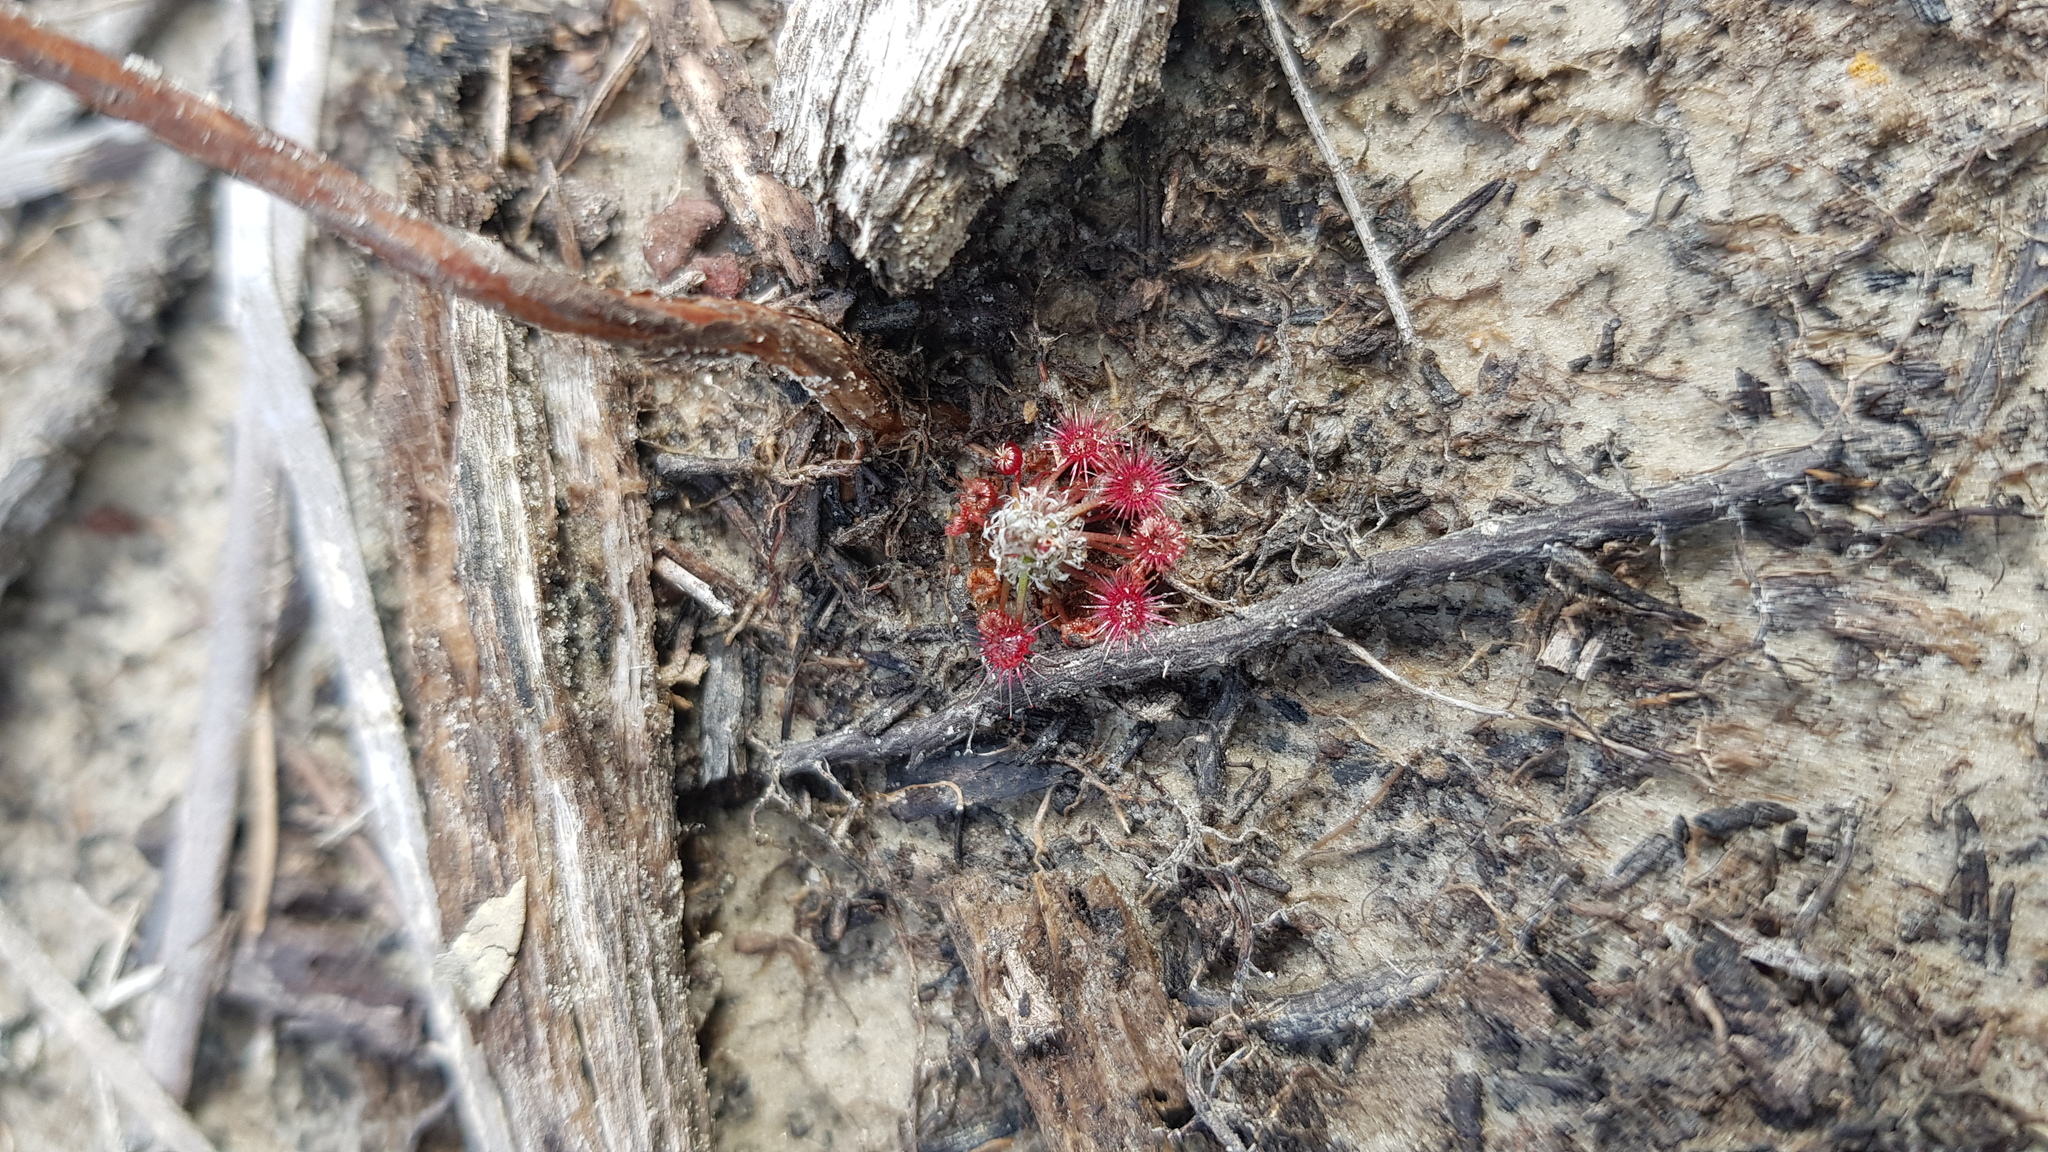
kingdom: Plantae
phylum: Tracheophyta
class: Magnoliopsida
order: Caryophyllales
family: Droseraceae
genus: Drosera
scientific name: Drosera pygmaea
